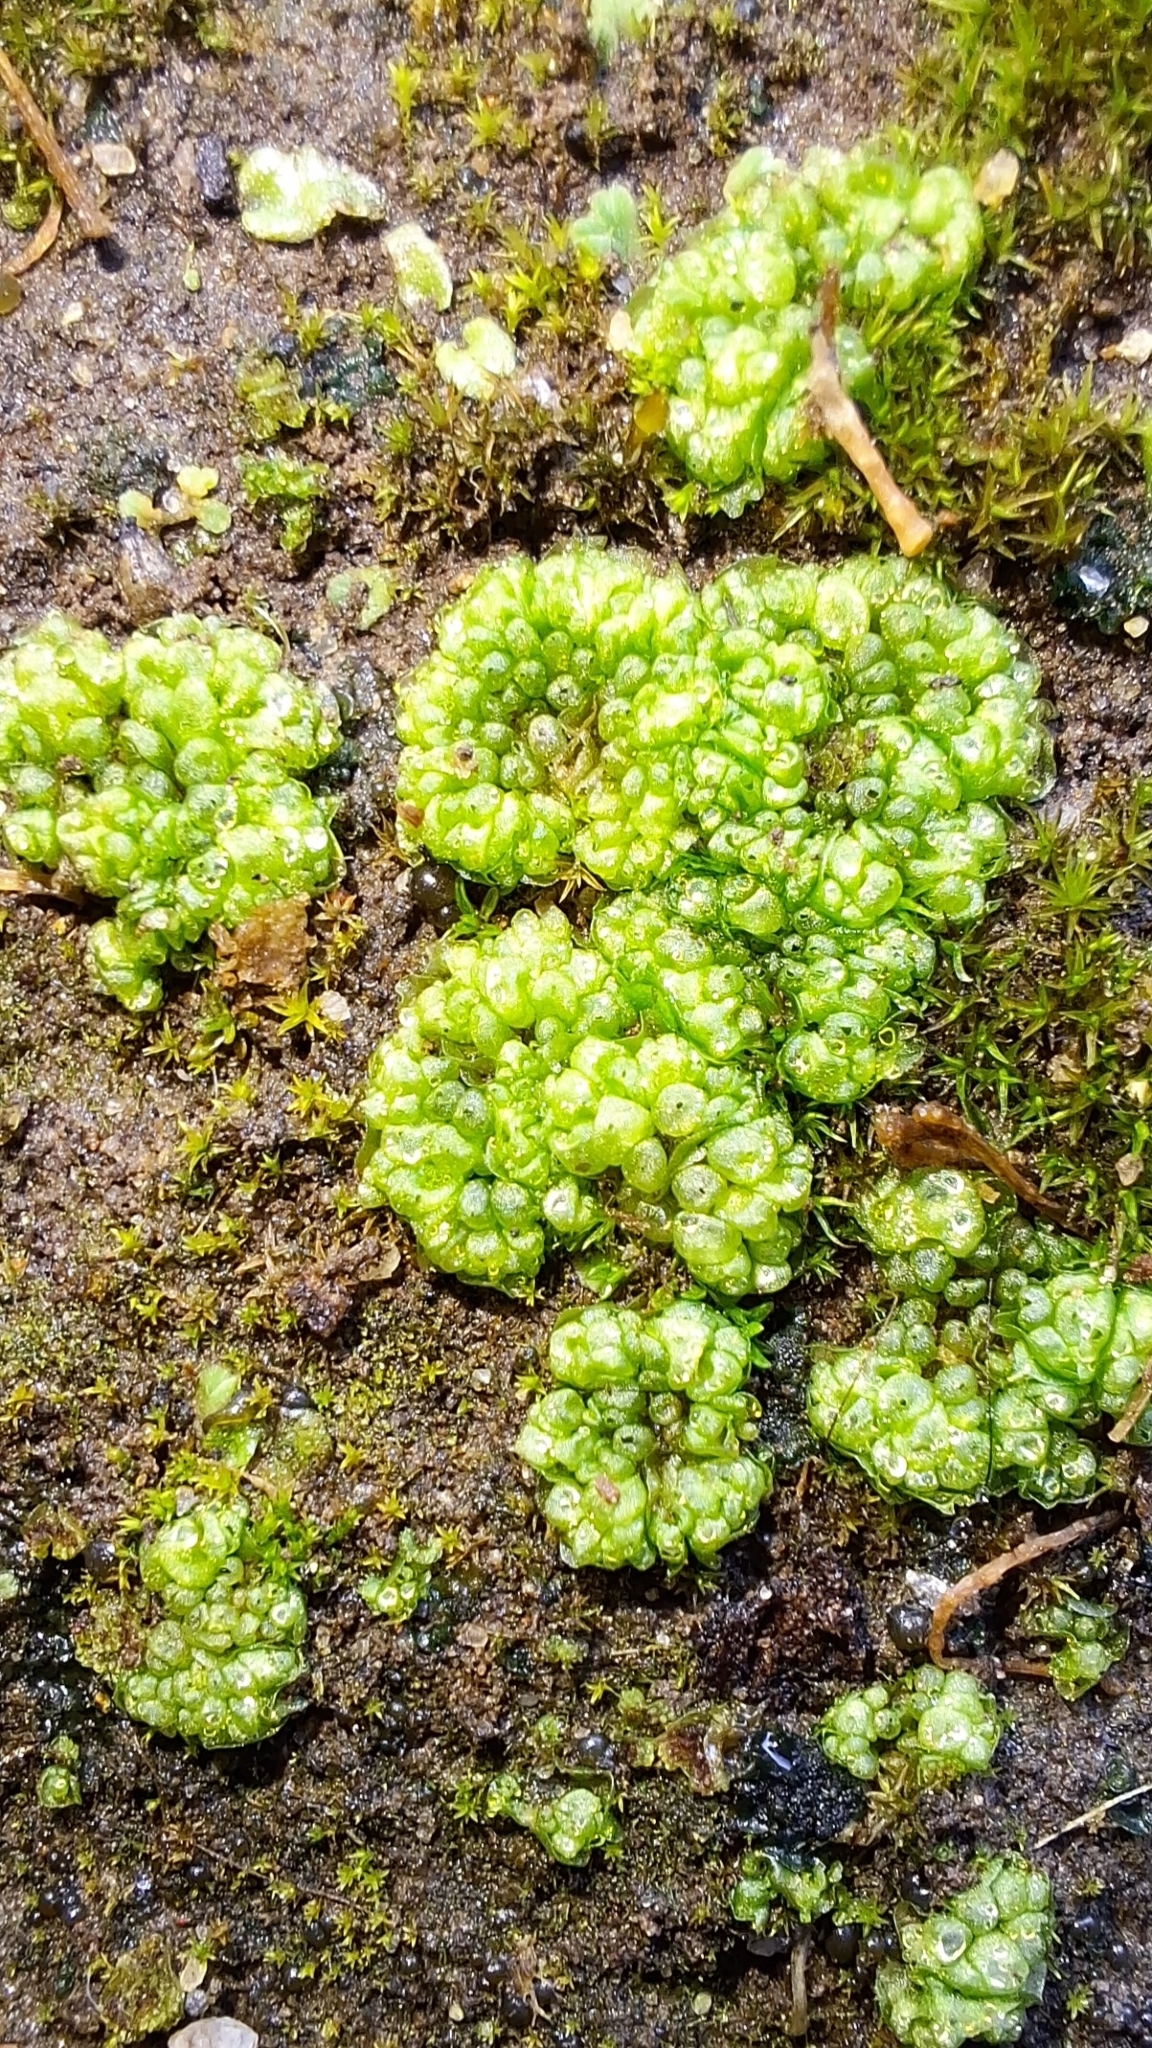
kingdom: Plantae
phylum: Marchantiophyta
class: Marchantiopsida
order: Sphaerocarpales
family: Sphaerocarpaceae
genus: Sphaerocarpos
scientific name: Sphaerocarpos texanus
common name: Texas balloonwort
